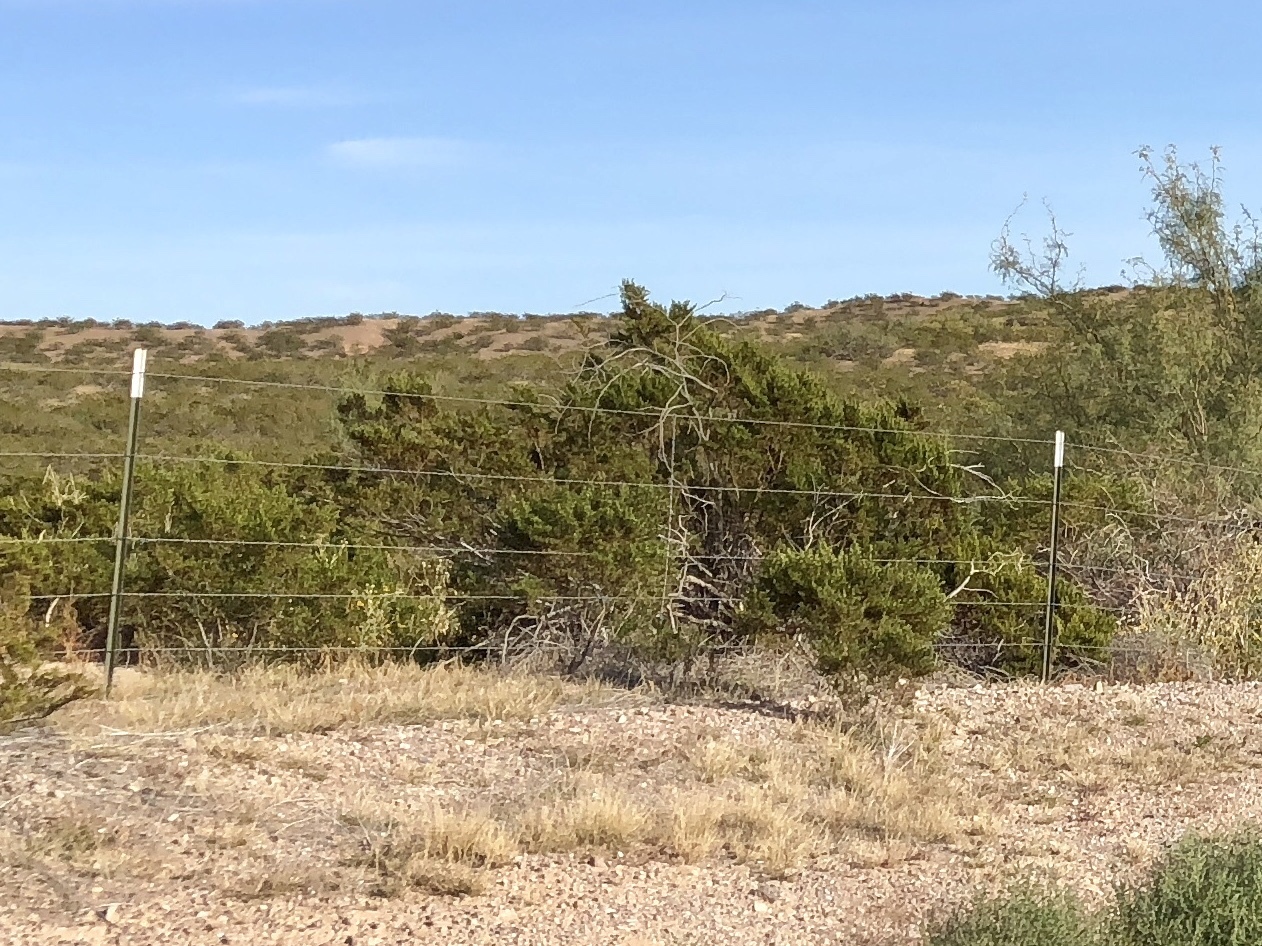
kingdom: Plantae
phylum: Tracheophyta
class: Magnoliopsida
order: Zygophyllales
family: Zygophyllaceae
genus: Larrea
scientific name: Larrea tridentata
